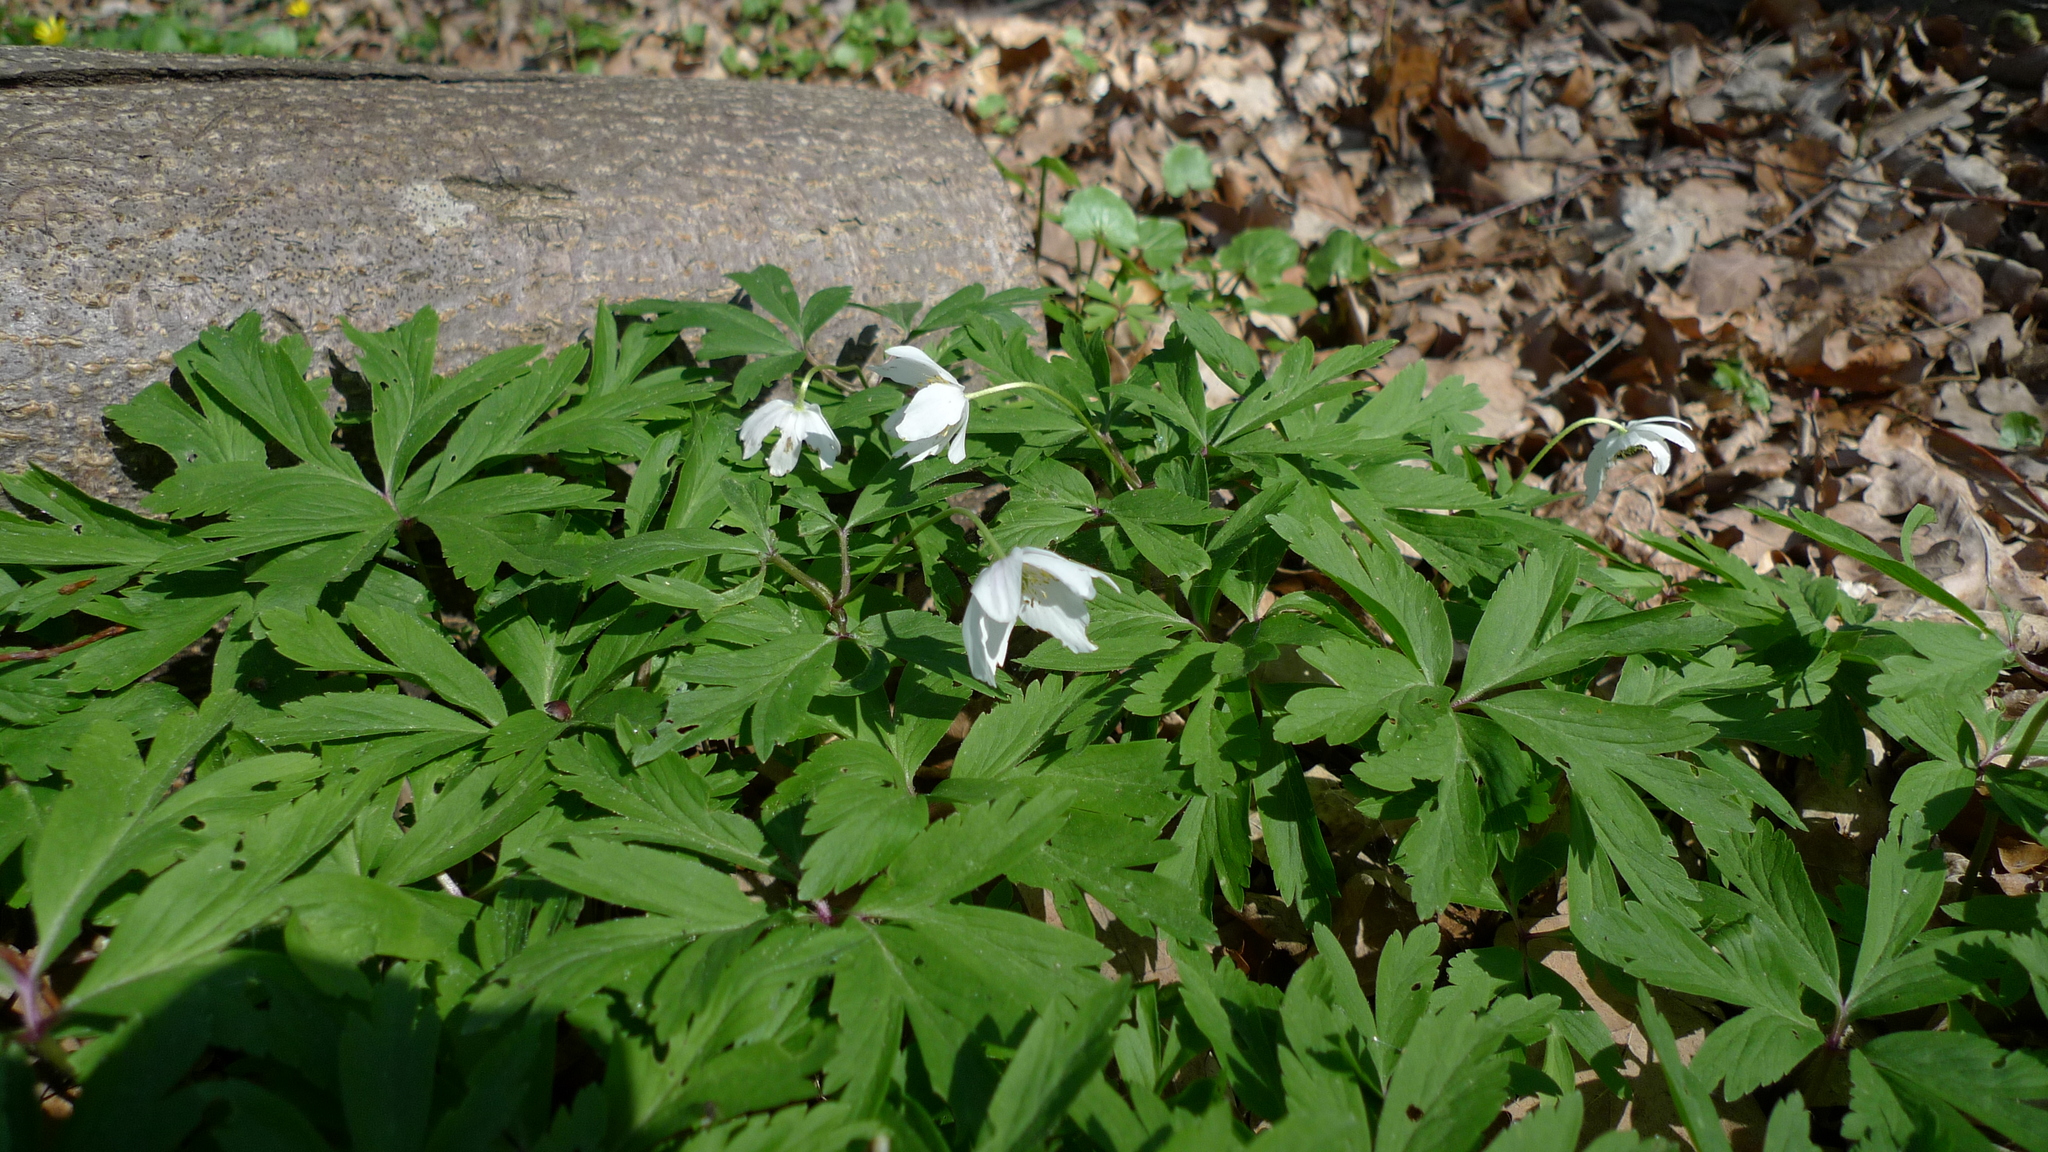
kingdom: Plantae
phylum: Tracheophyta
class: Magnoliopsida
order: Ranunculales
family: Ranunculaceae
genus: Anemone
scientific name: Anemone nemorosa
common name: Wood anemone
